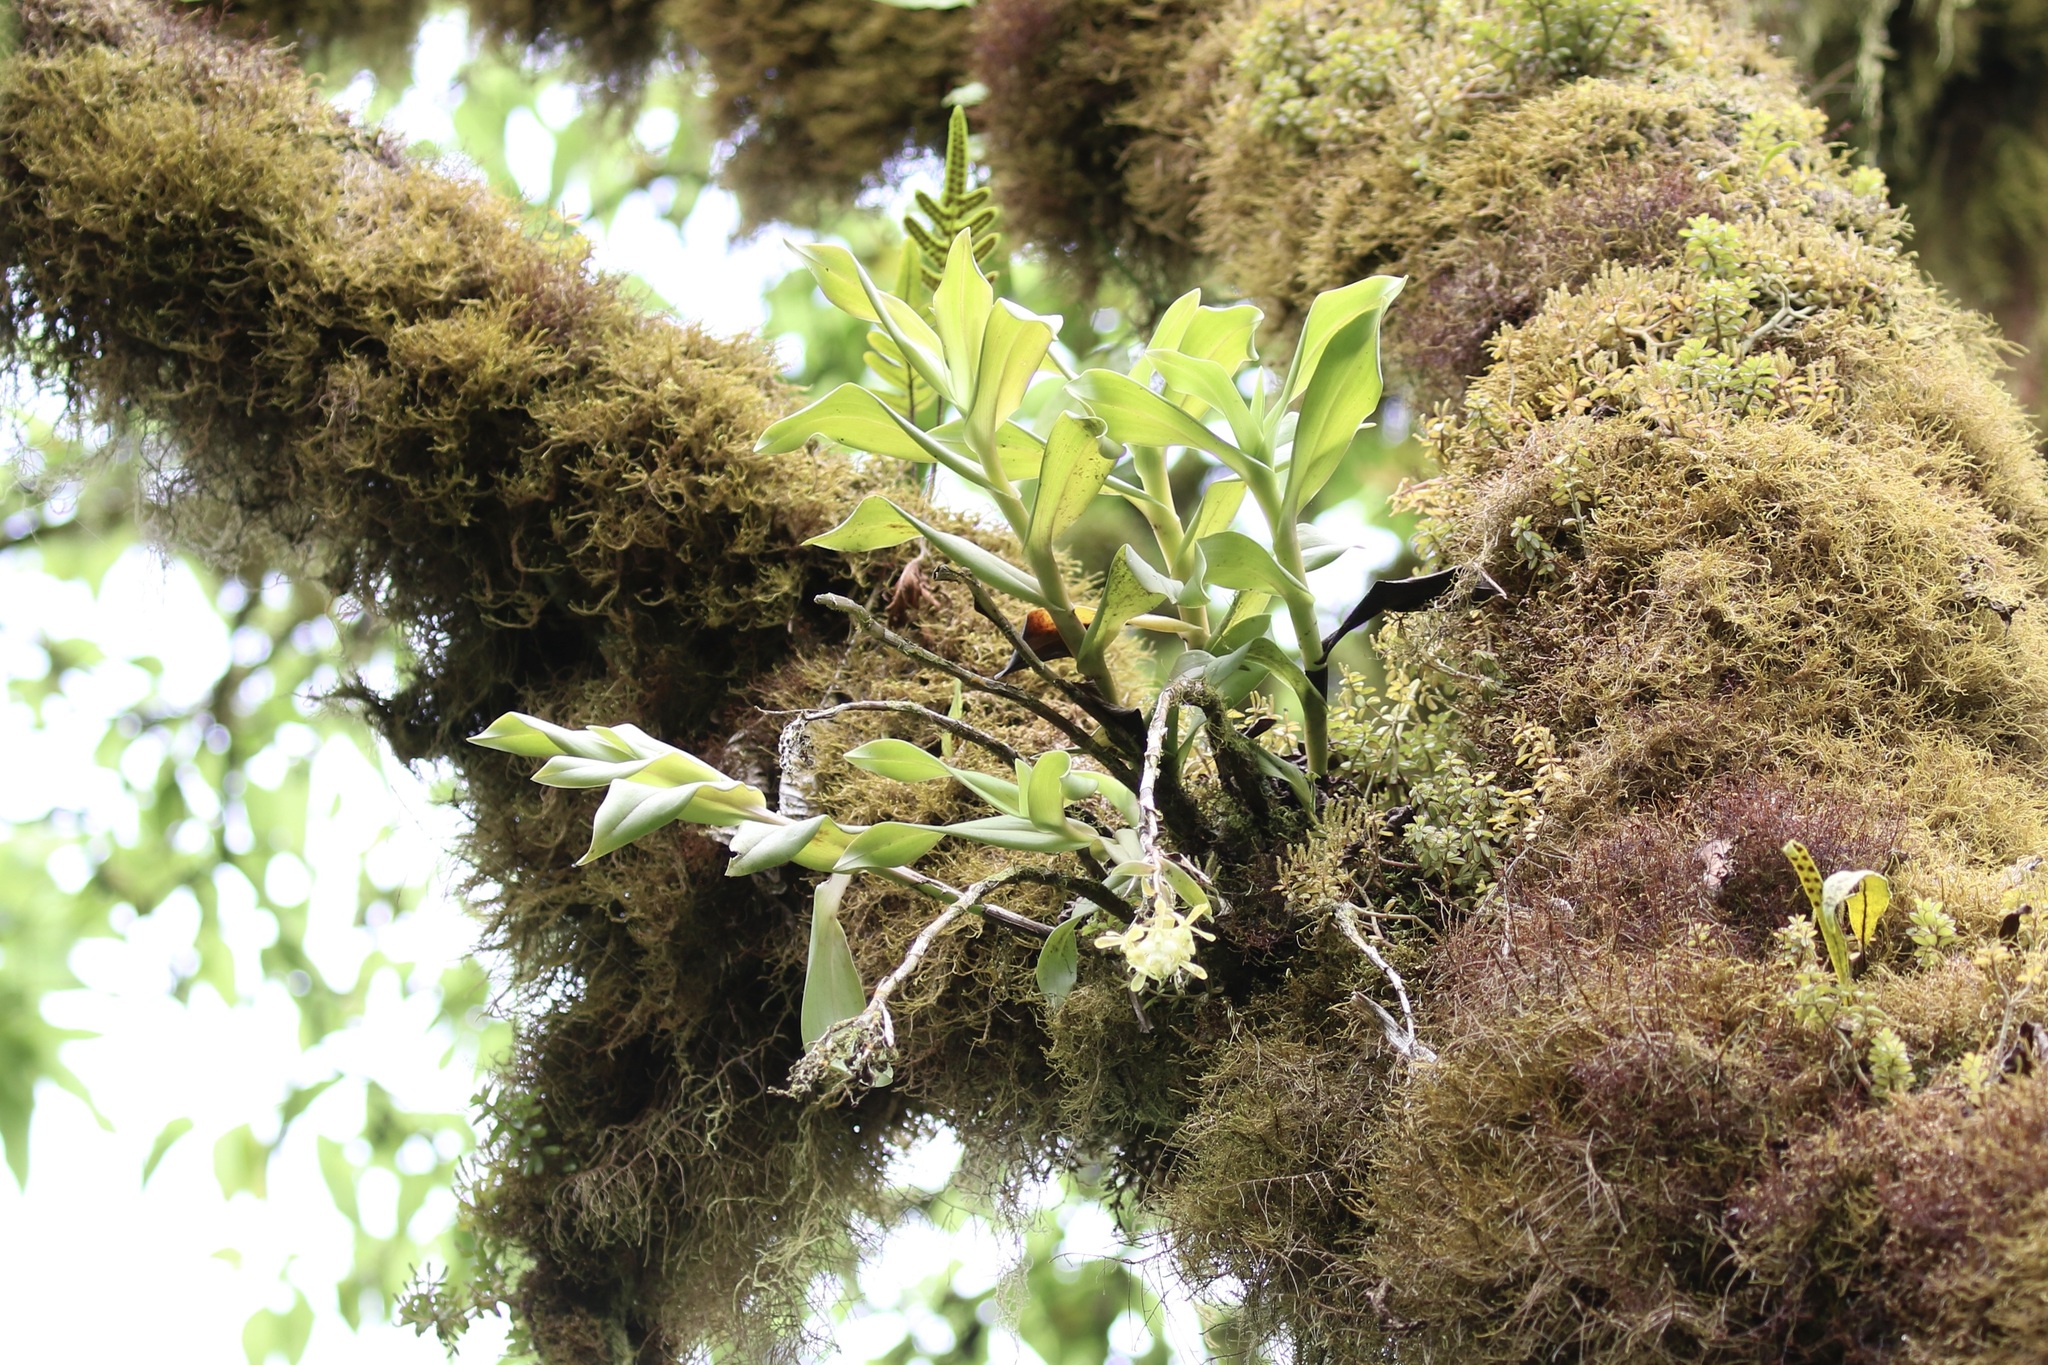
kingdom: Plantae
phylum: Tracheophyta
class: Liliopsida
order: Asparagales
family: Orchidaceae
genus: Epidendrum
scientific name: Epidendrum spicatum
